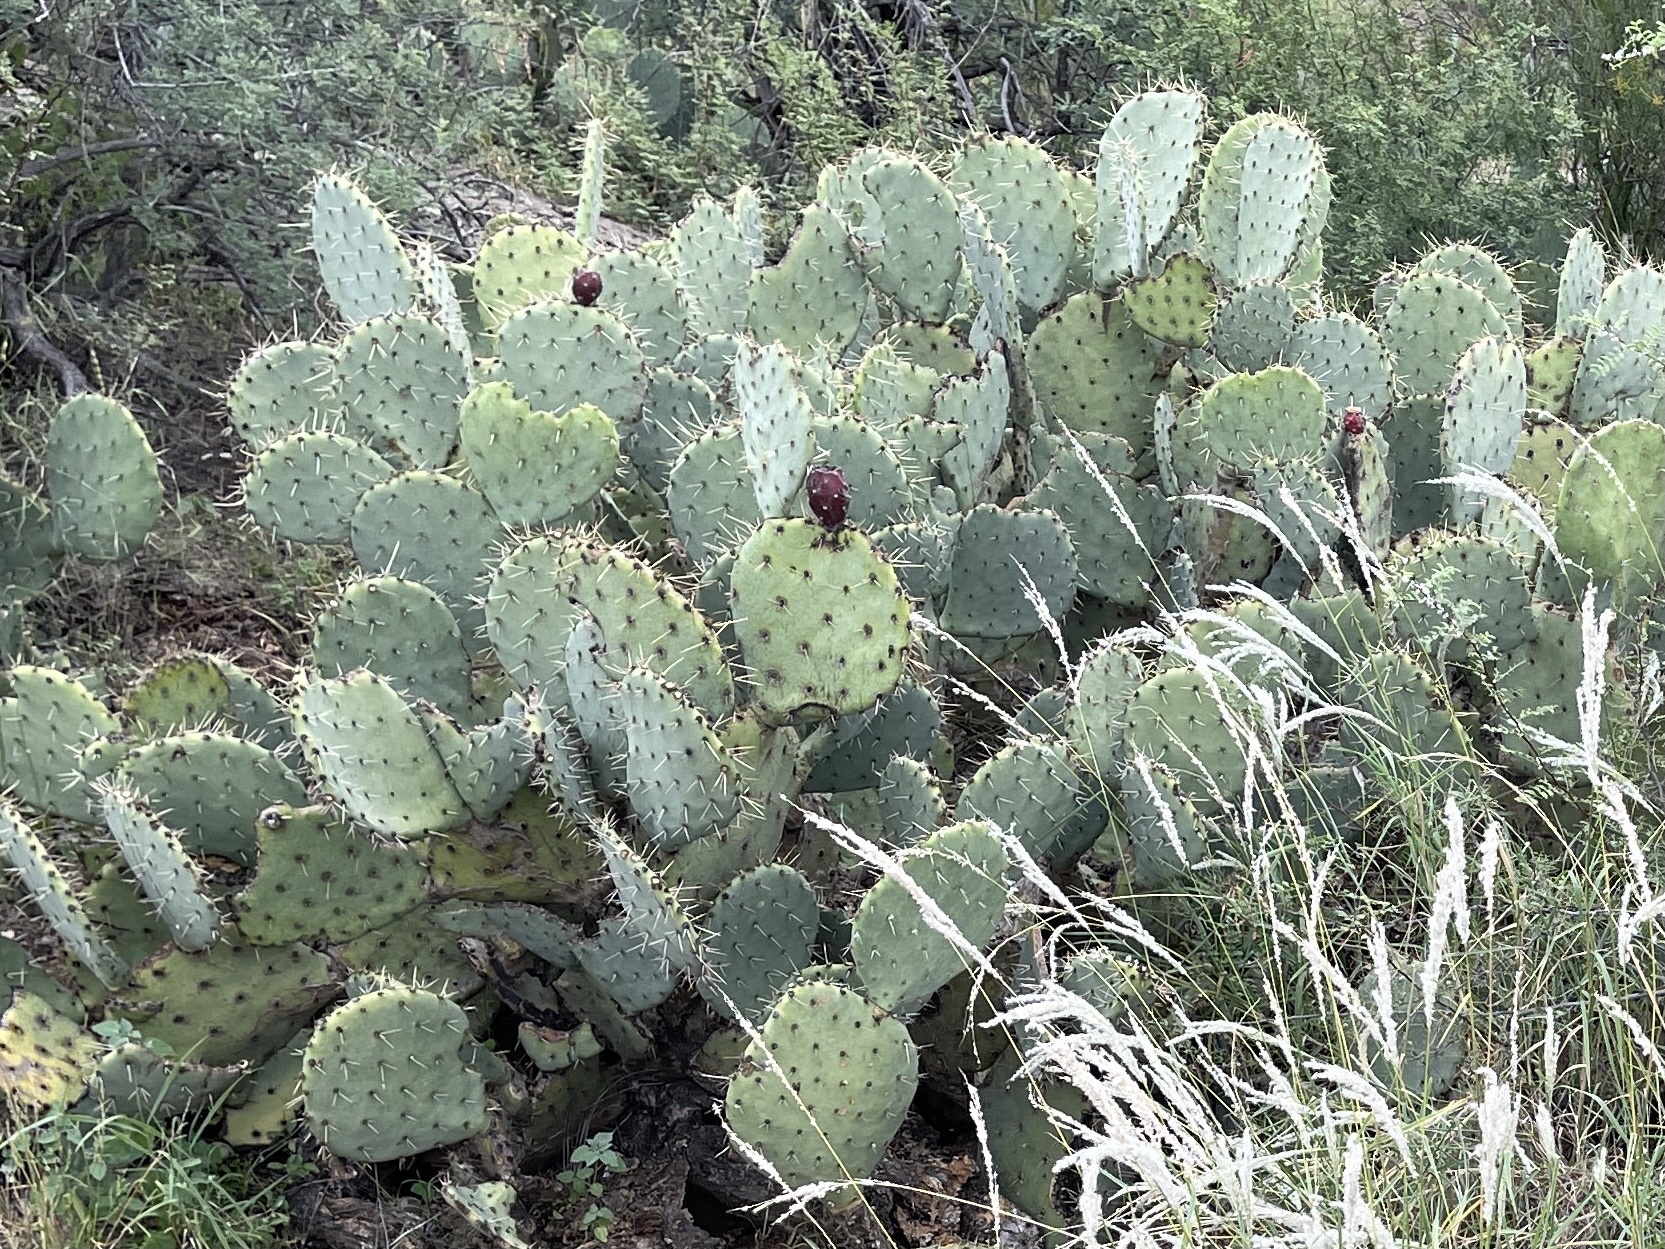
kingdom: Plantae
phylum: Tracheophyta
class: Magnoliopsida
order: Caryophyllales
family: Cactaceae
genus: Opuntia
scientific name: Opuntia engelmannii
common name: Cactus-apple
